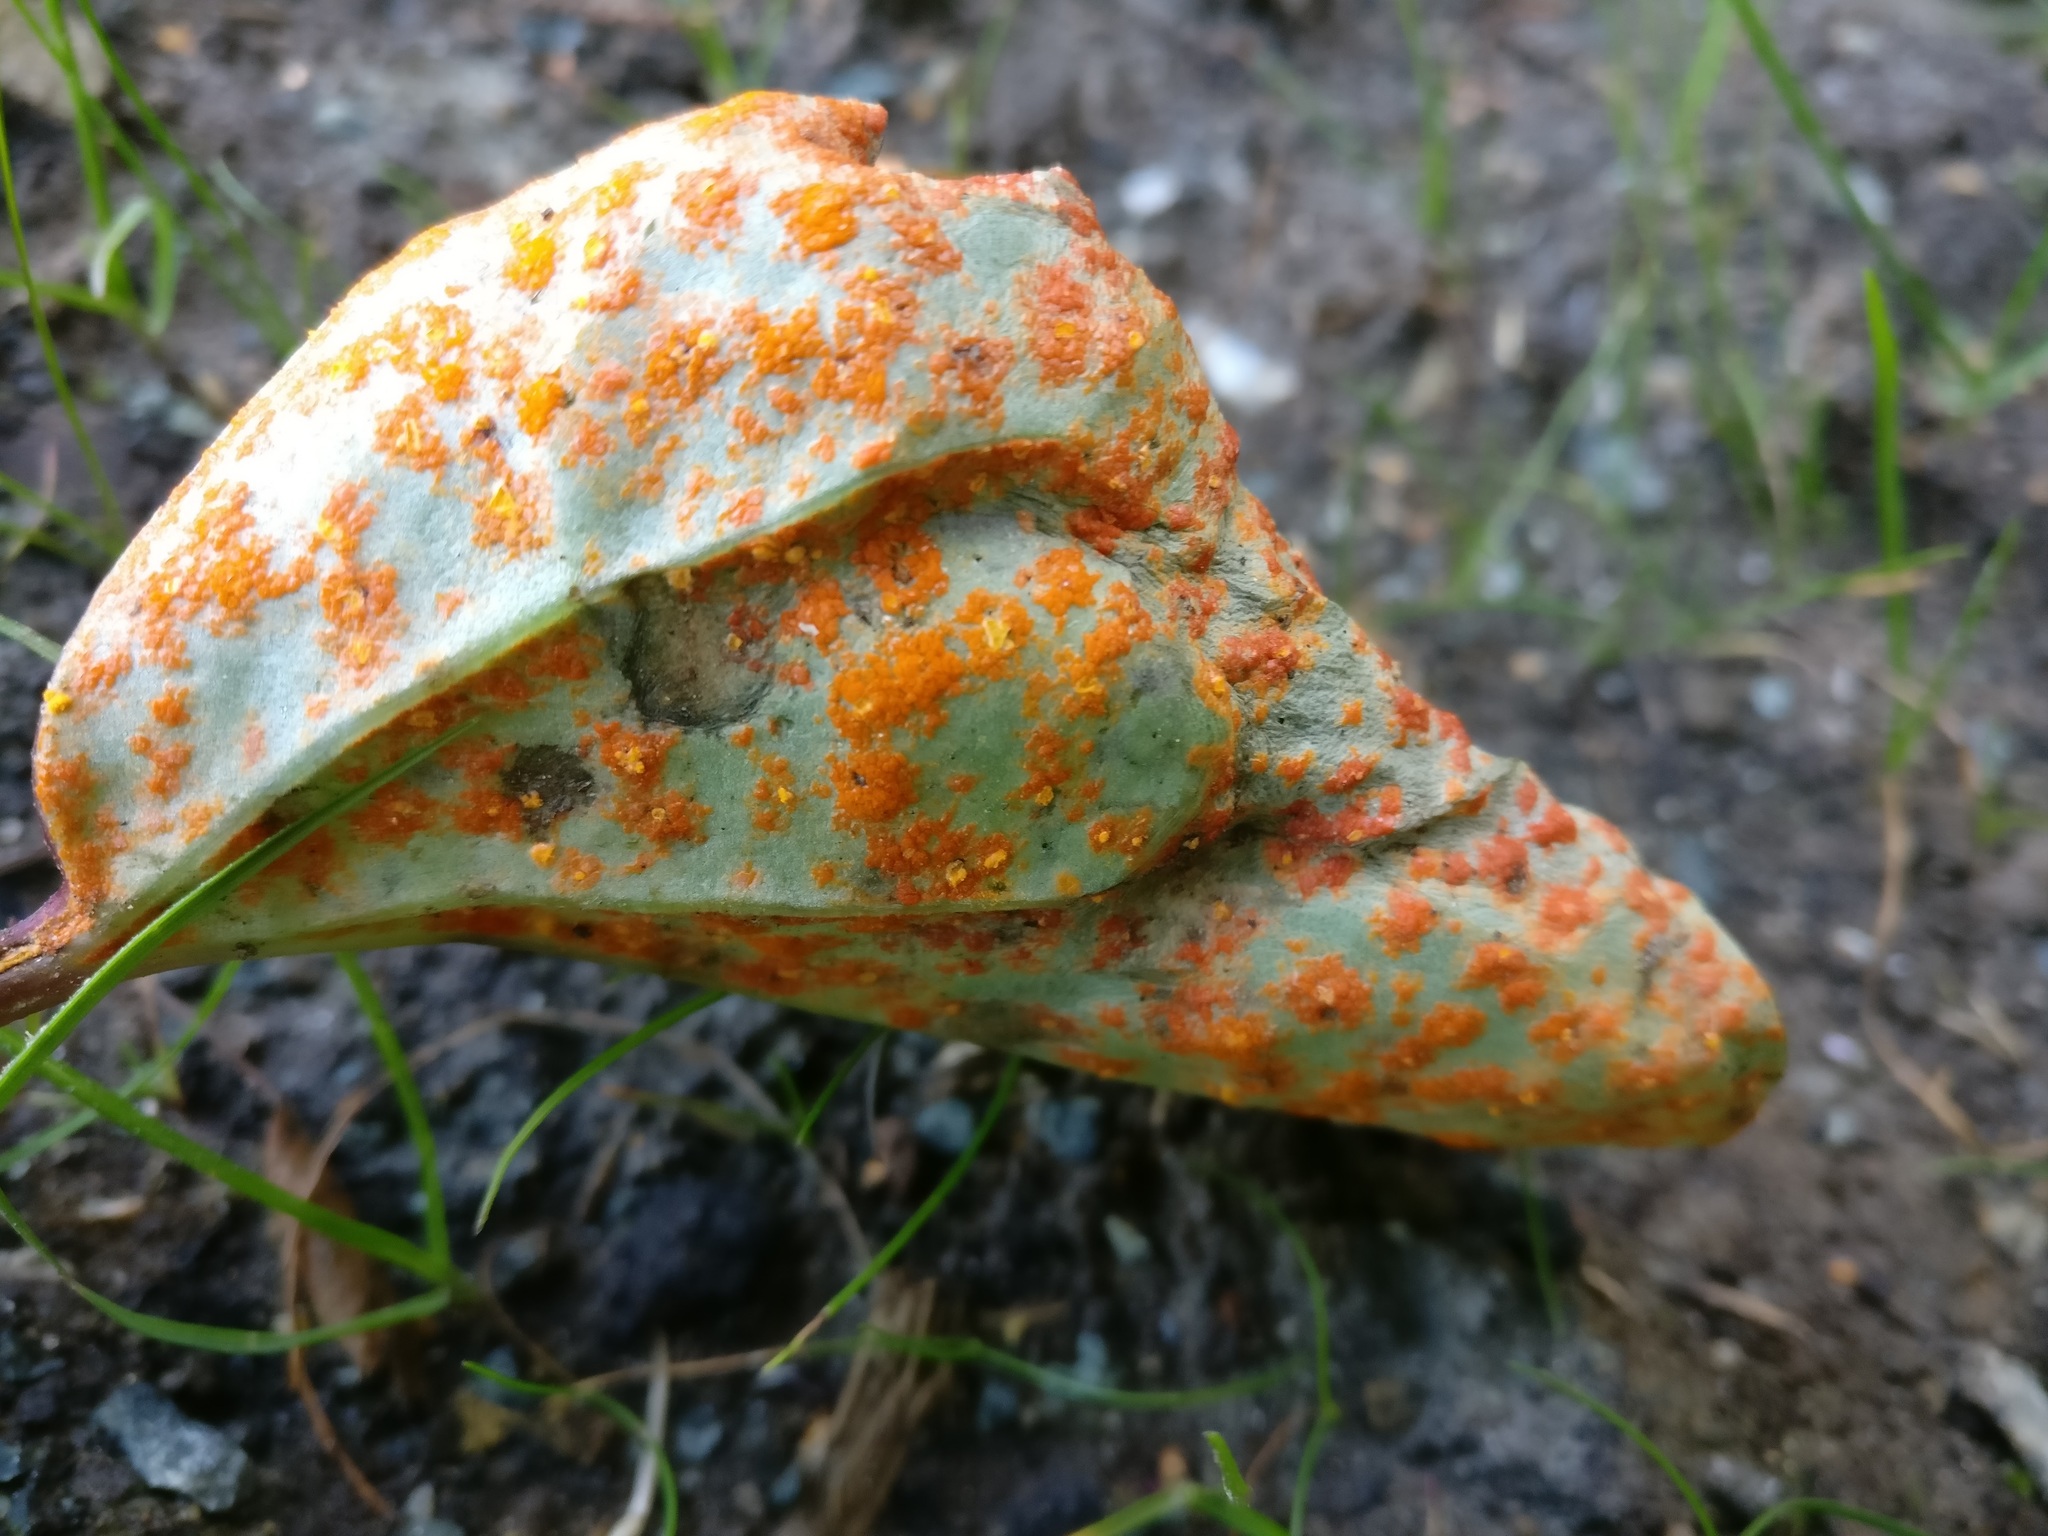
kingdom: Fungi
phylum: Basidiomycota
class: Pucciniomycetes
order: Pucciniales
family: Coleosporiaceae
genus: Coleosporium
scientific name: Coleosporium tussilaginis
